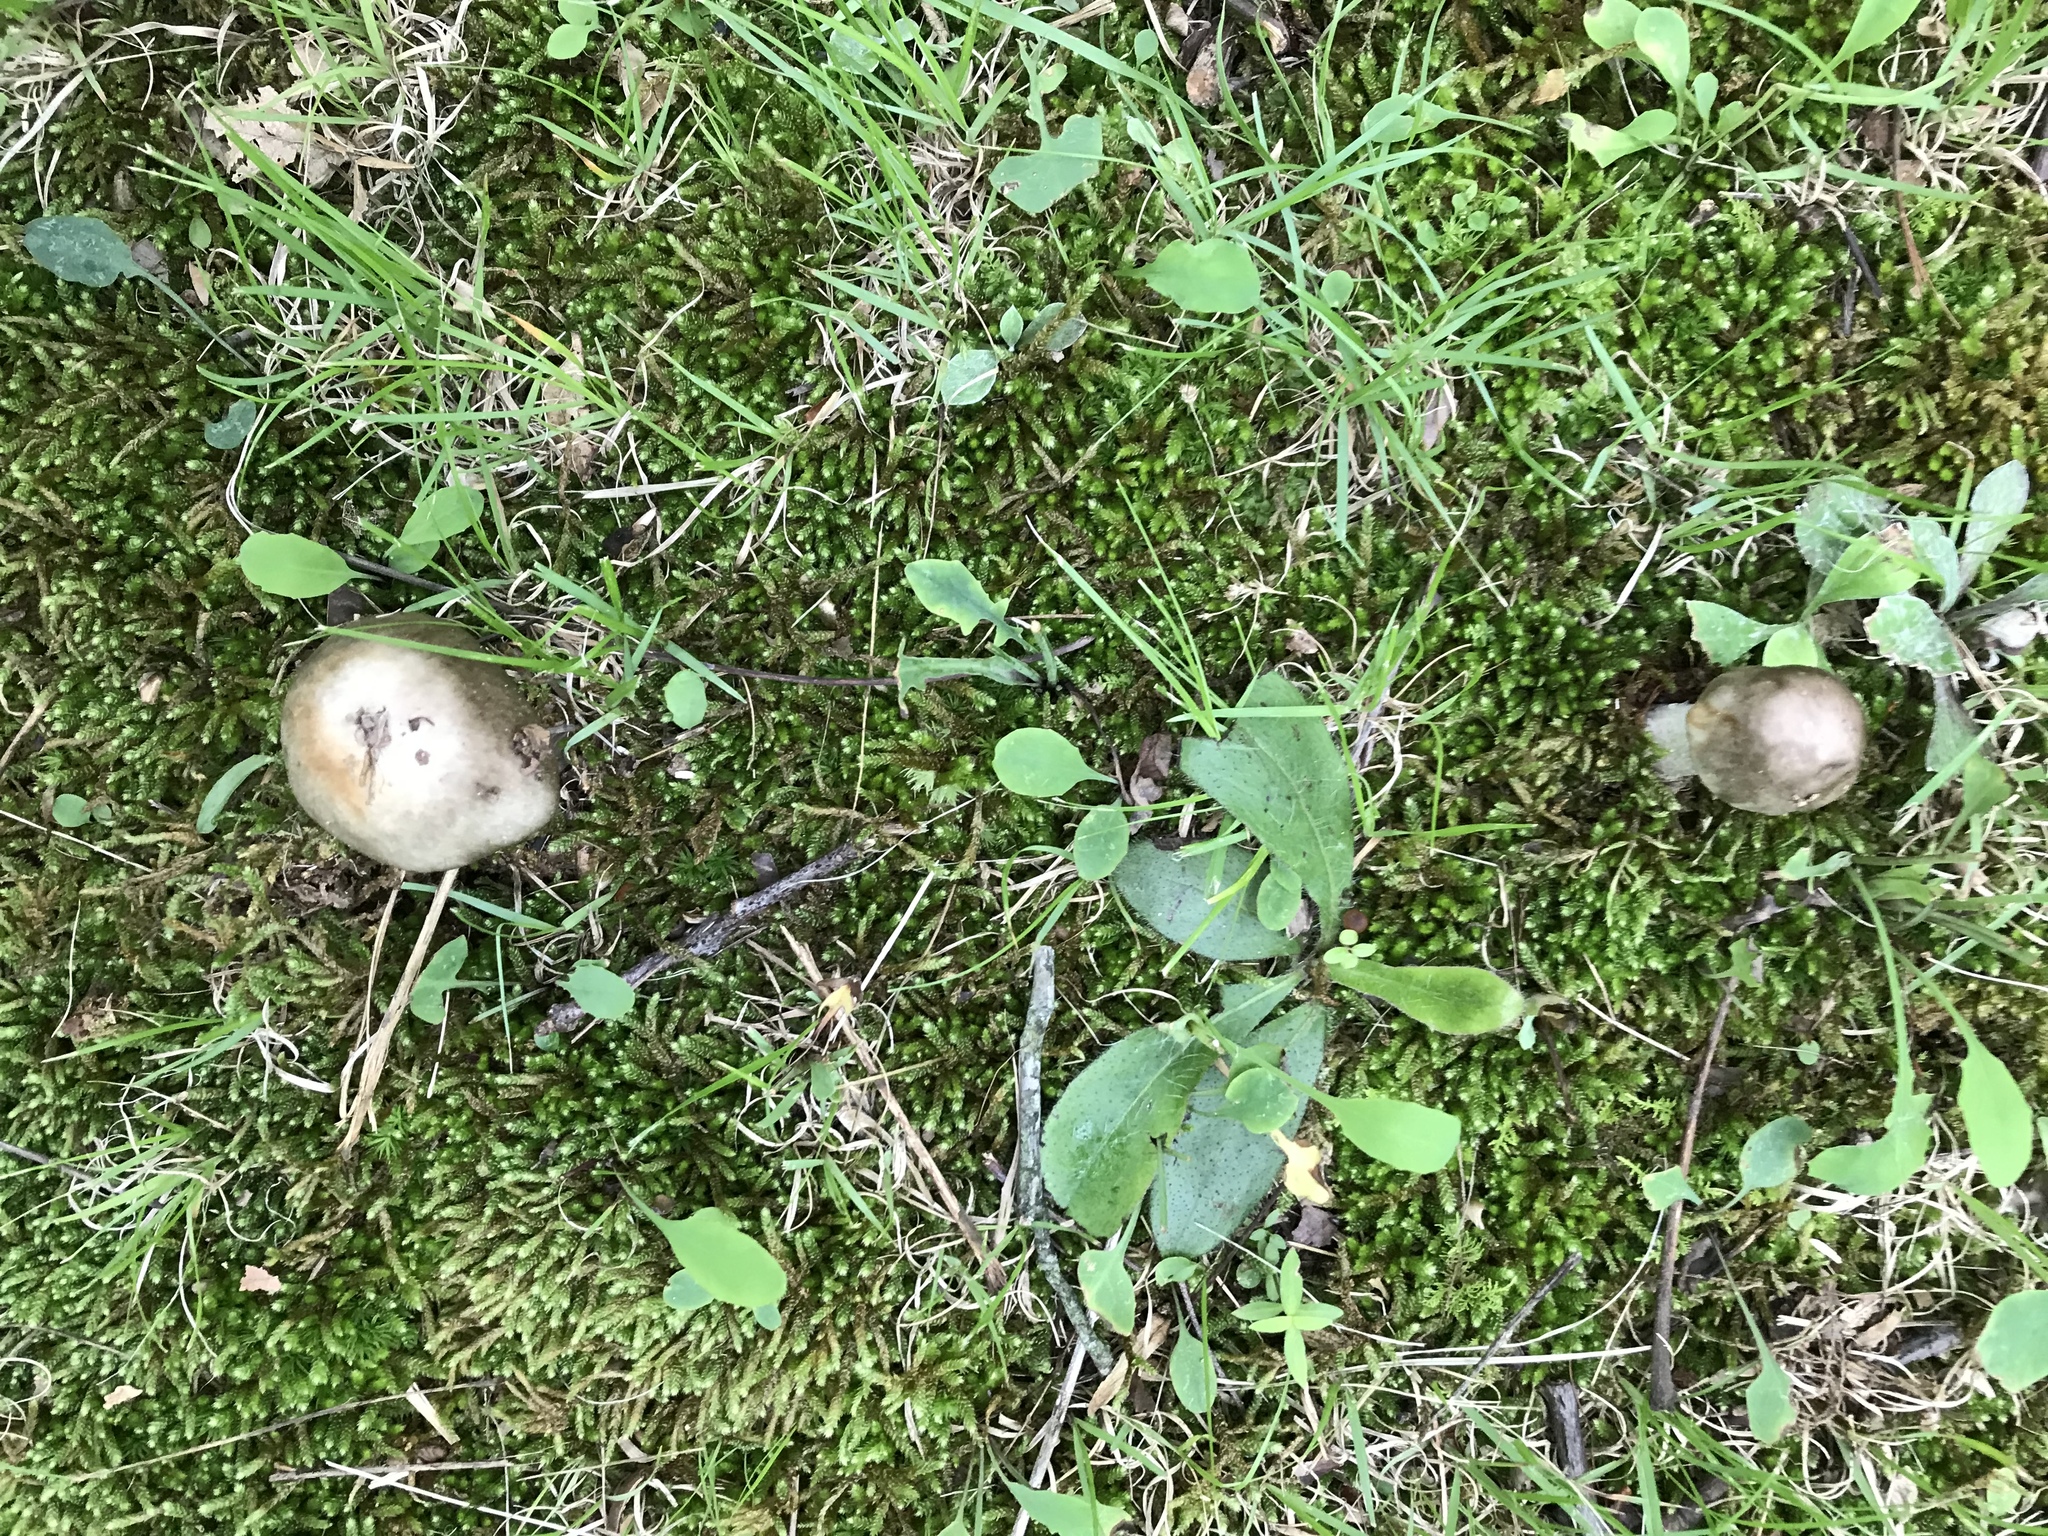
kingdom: Fungi
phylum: Basidiomycota
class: Agaricomycetes
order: Agaricales
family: Amanitaceae
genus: Amanita
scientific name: Amanita submaculata
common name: Ball gown amanita
